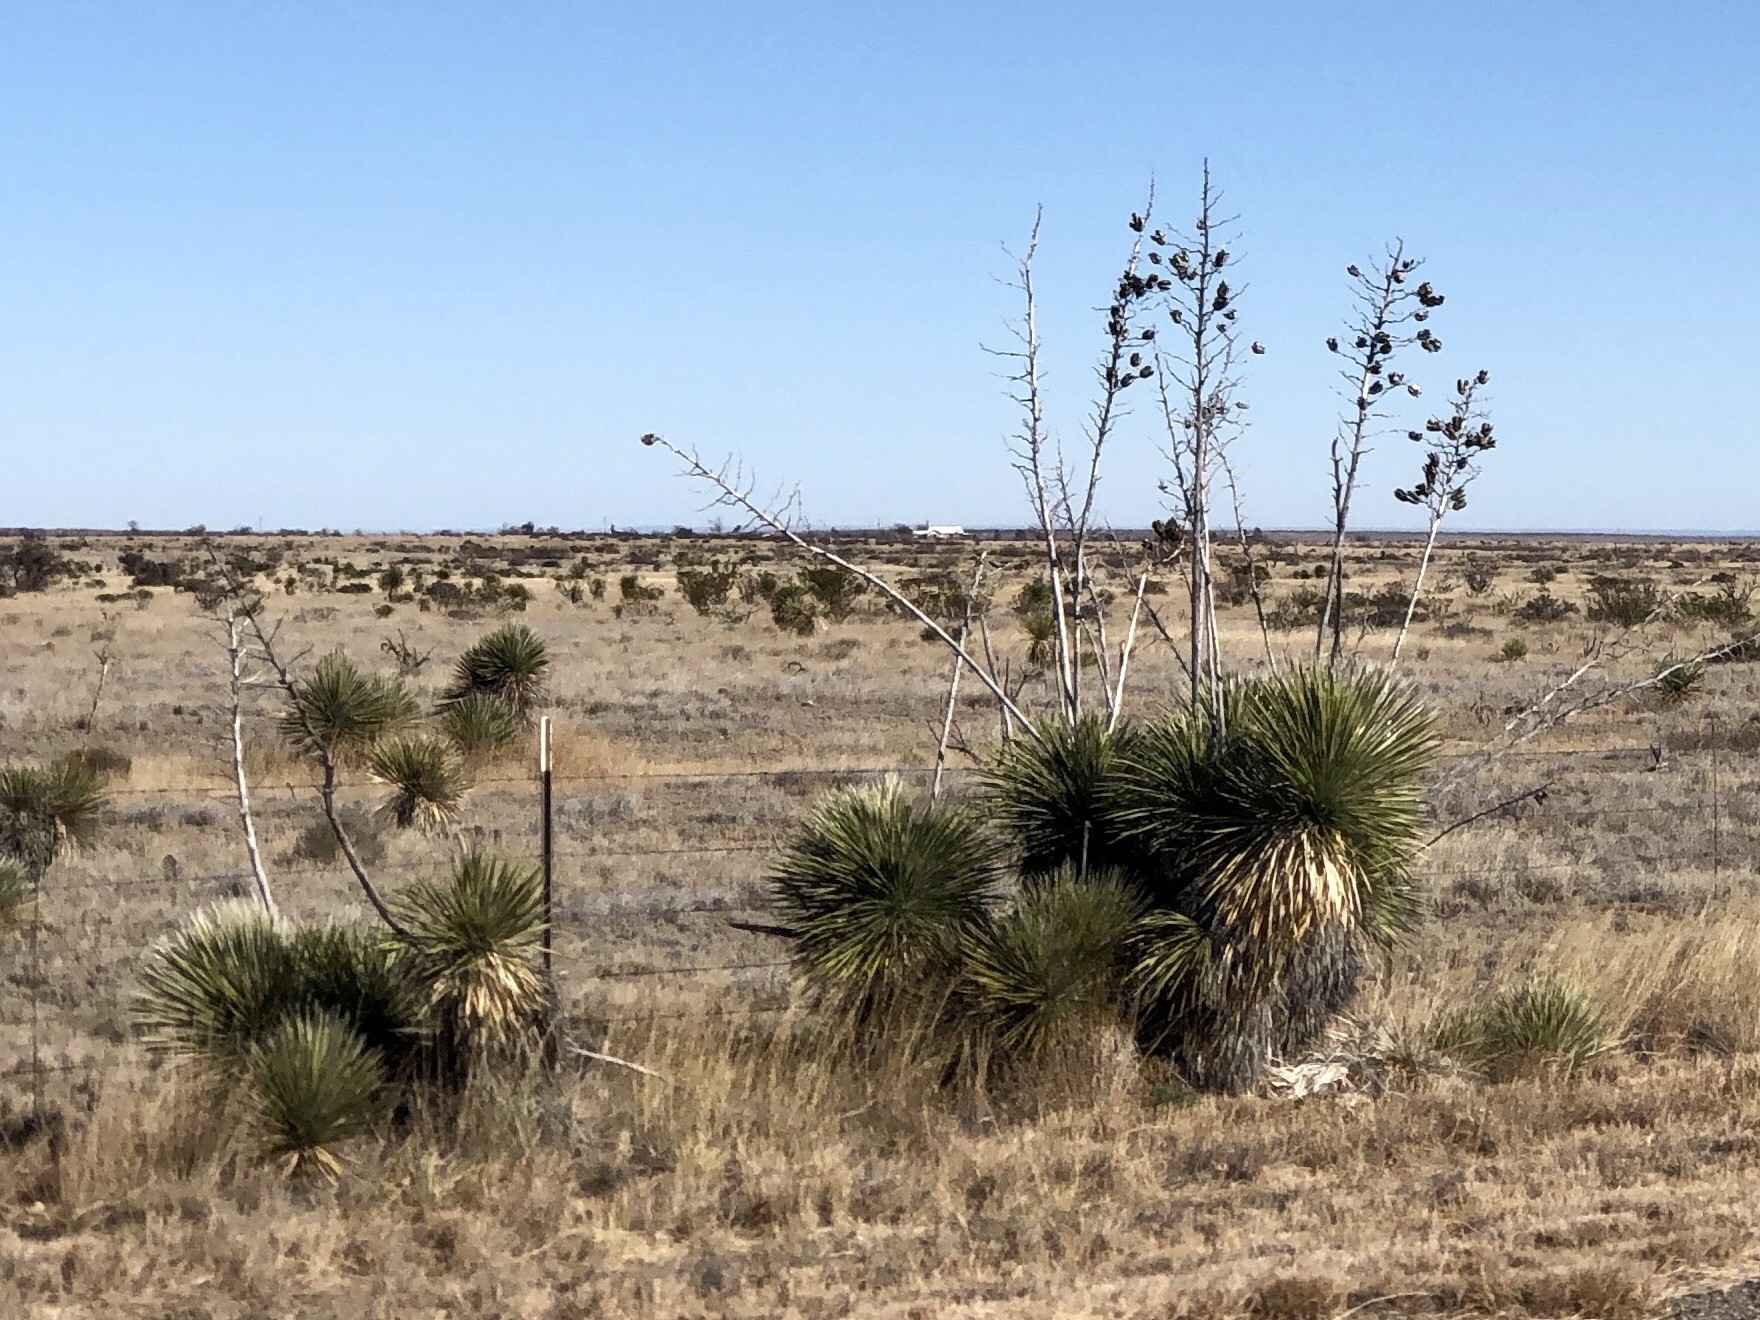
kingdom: Plantae
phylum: Tracheophyta
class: Liliopsida
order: Asparagales
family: Asparagaceae
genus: Yucca
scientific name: Yucca elata
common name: Palmella
